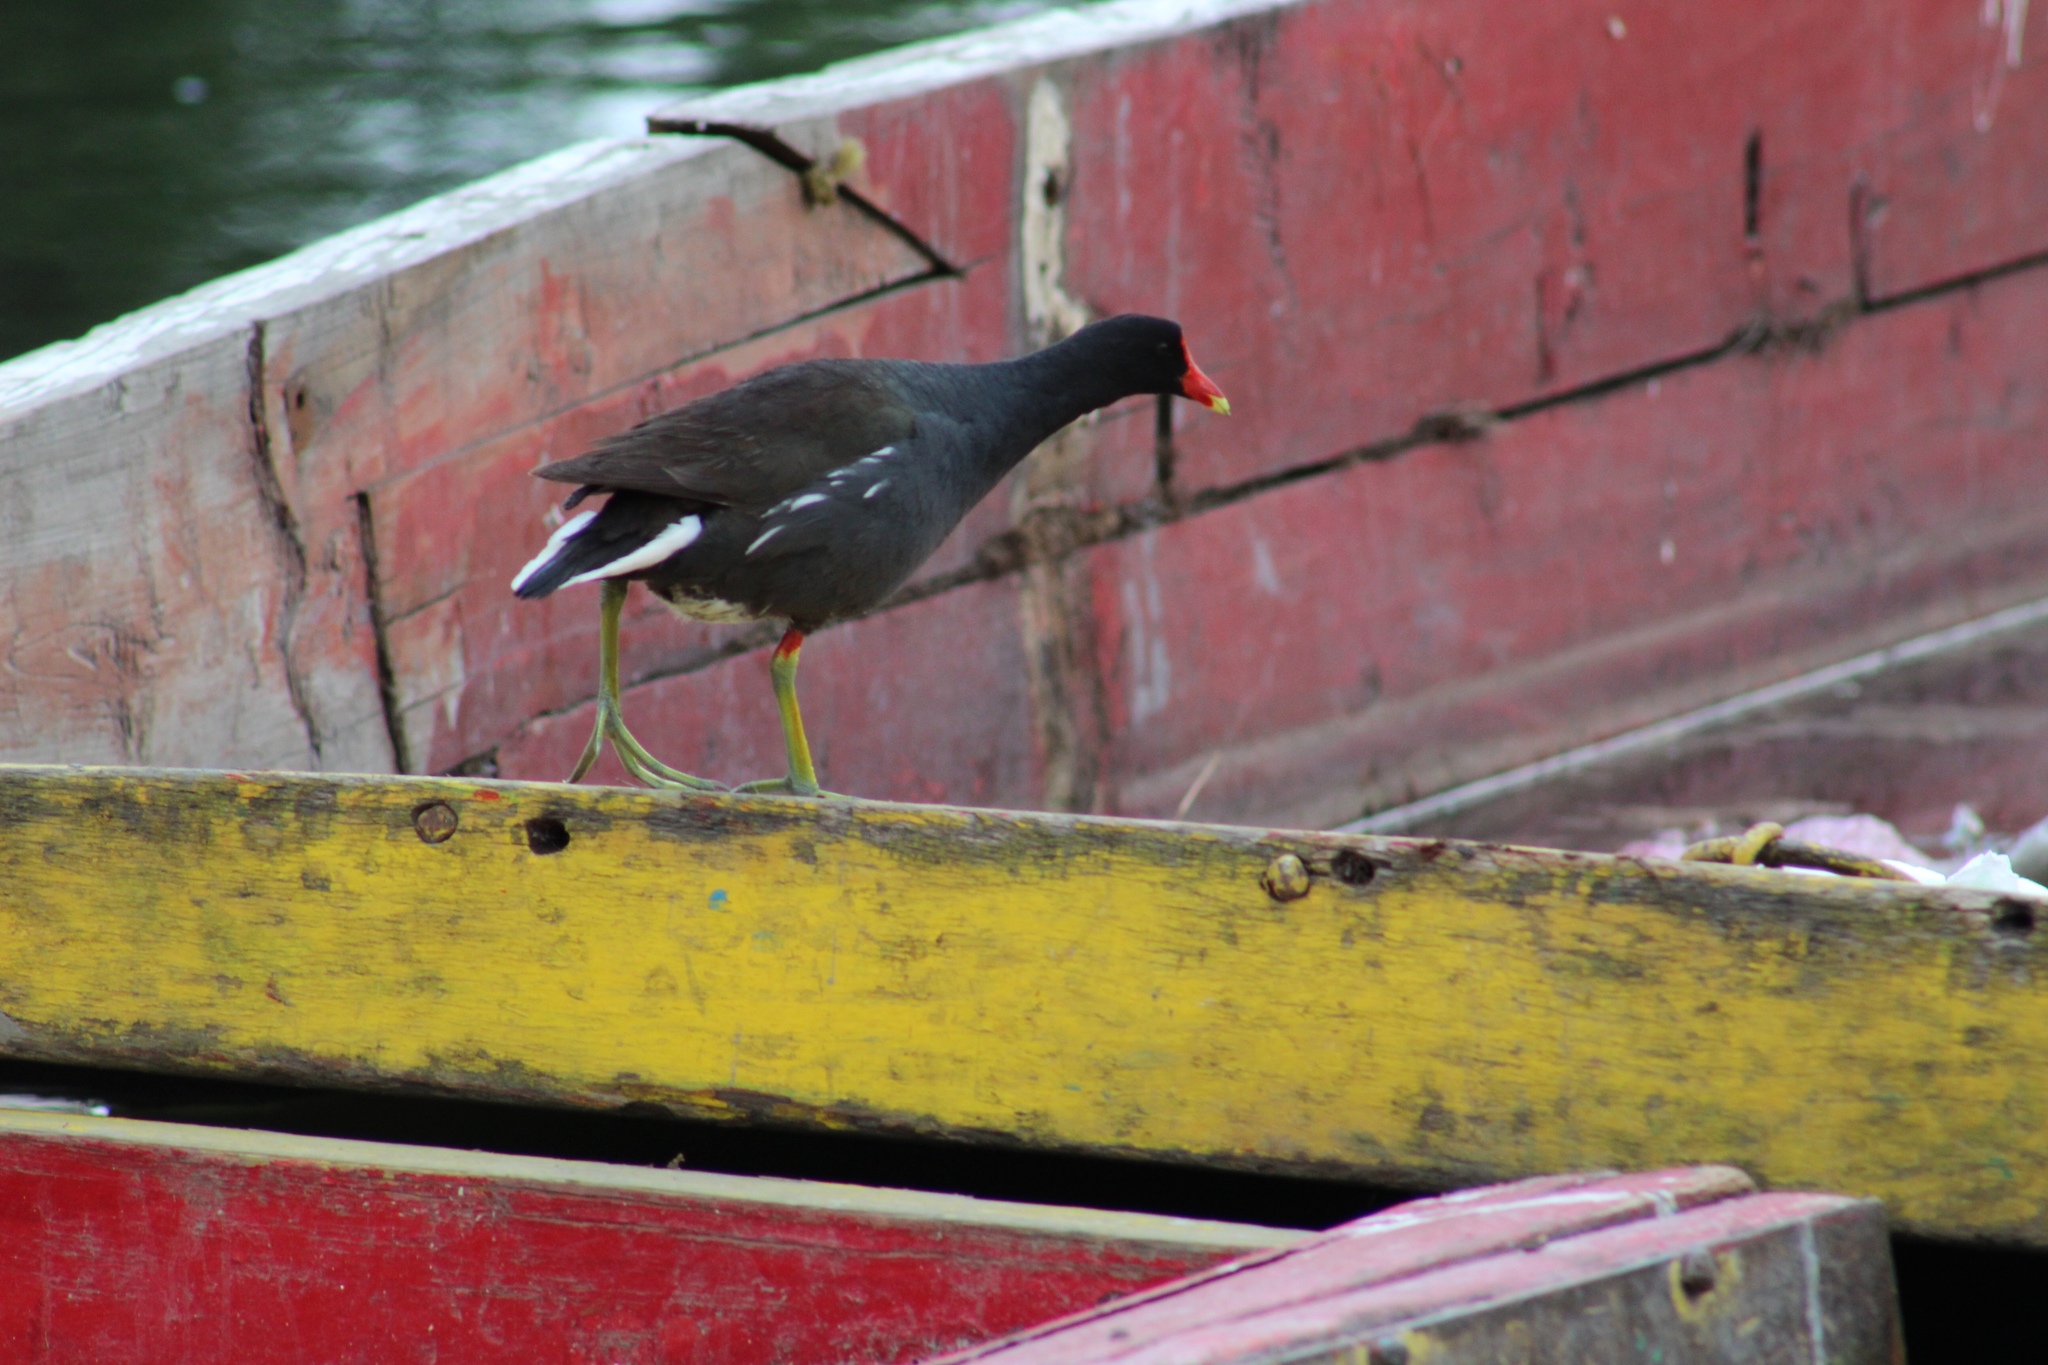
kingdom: Animalia
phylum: Chordata
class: Aves
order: Gruiformes
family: Rallidae
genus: Gallinula
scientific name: Gallinula chloropus
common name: Common moorhen
